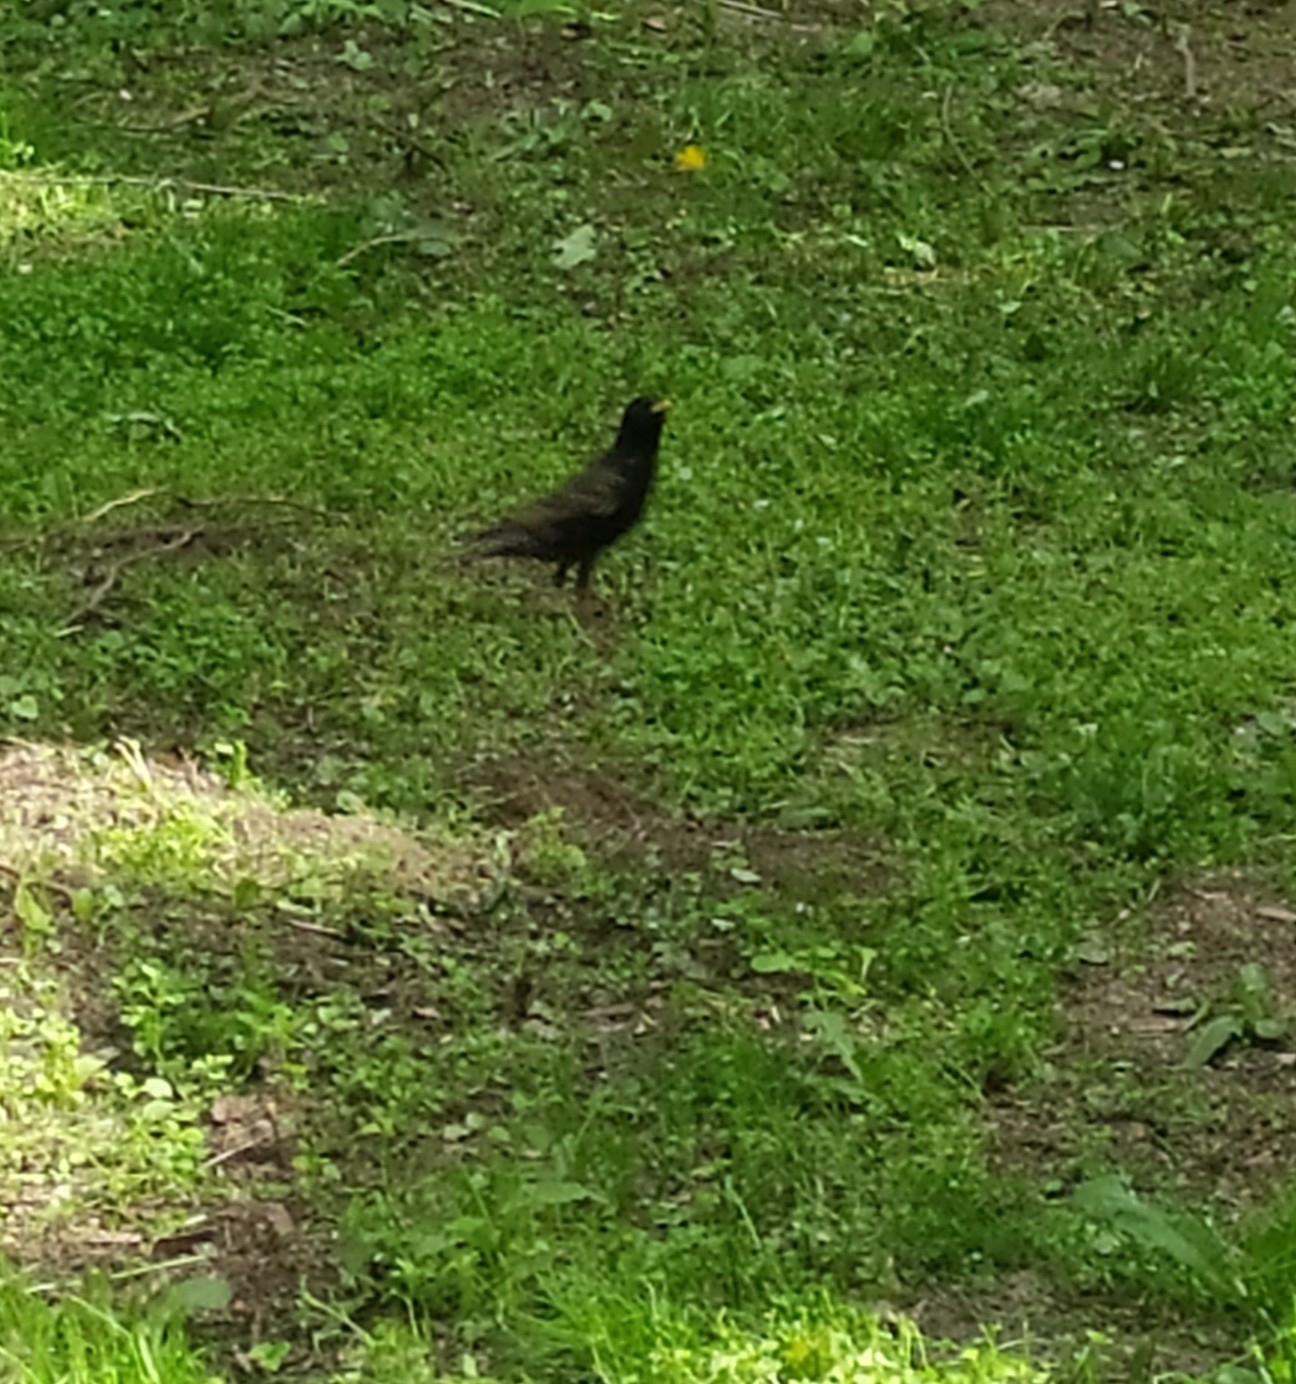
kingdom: Animalia
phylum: Chordata
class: Aves
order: Passeriformes
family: Sturnidae
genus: Sturnus
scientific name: Sturnus vulgaris
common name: Common starling
